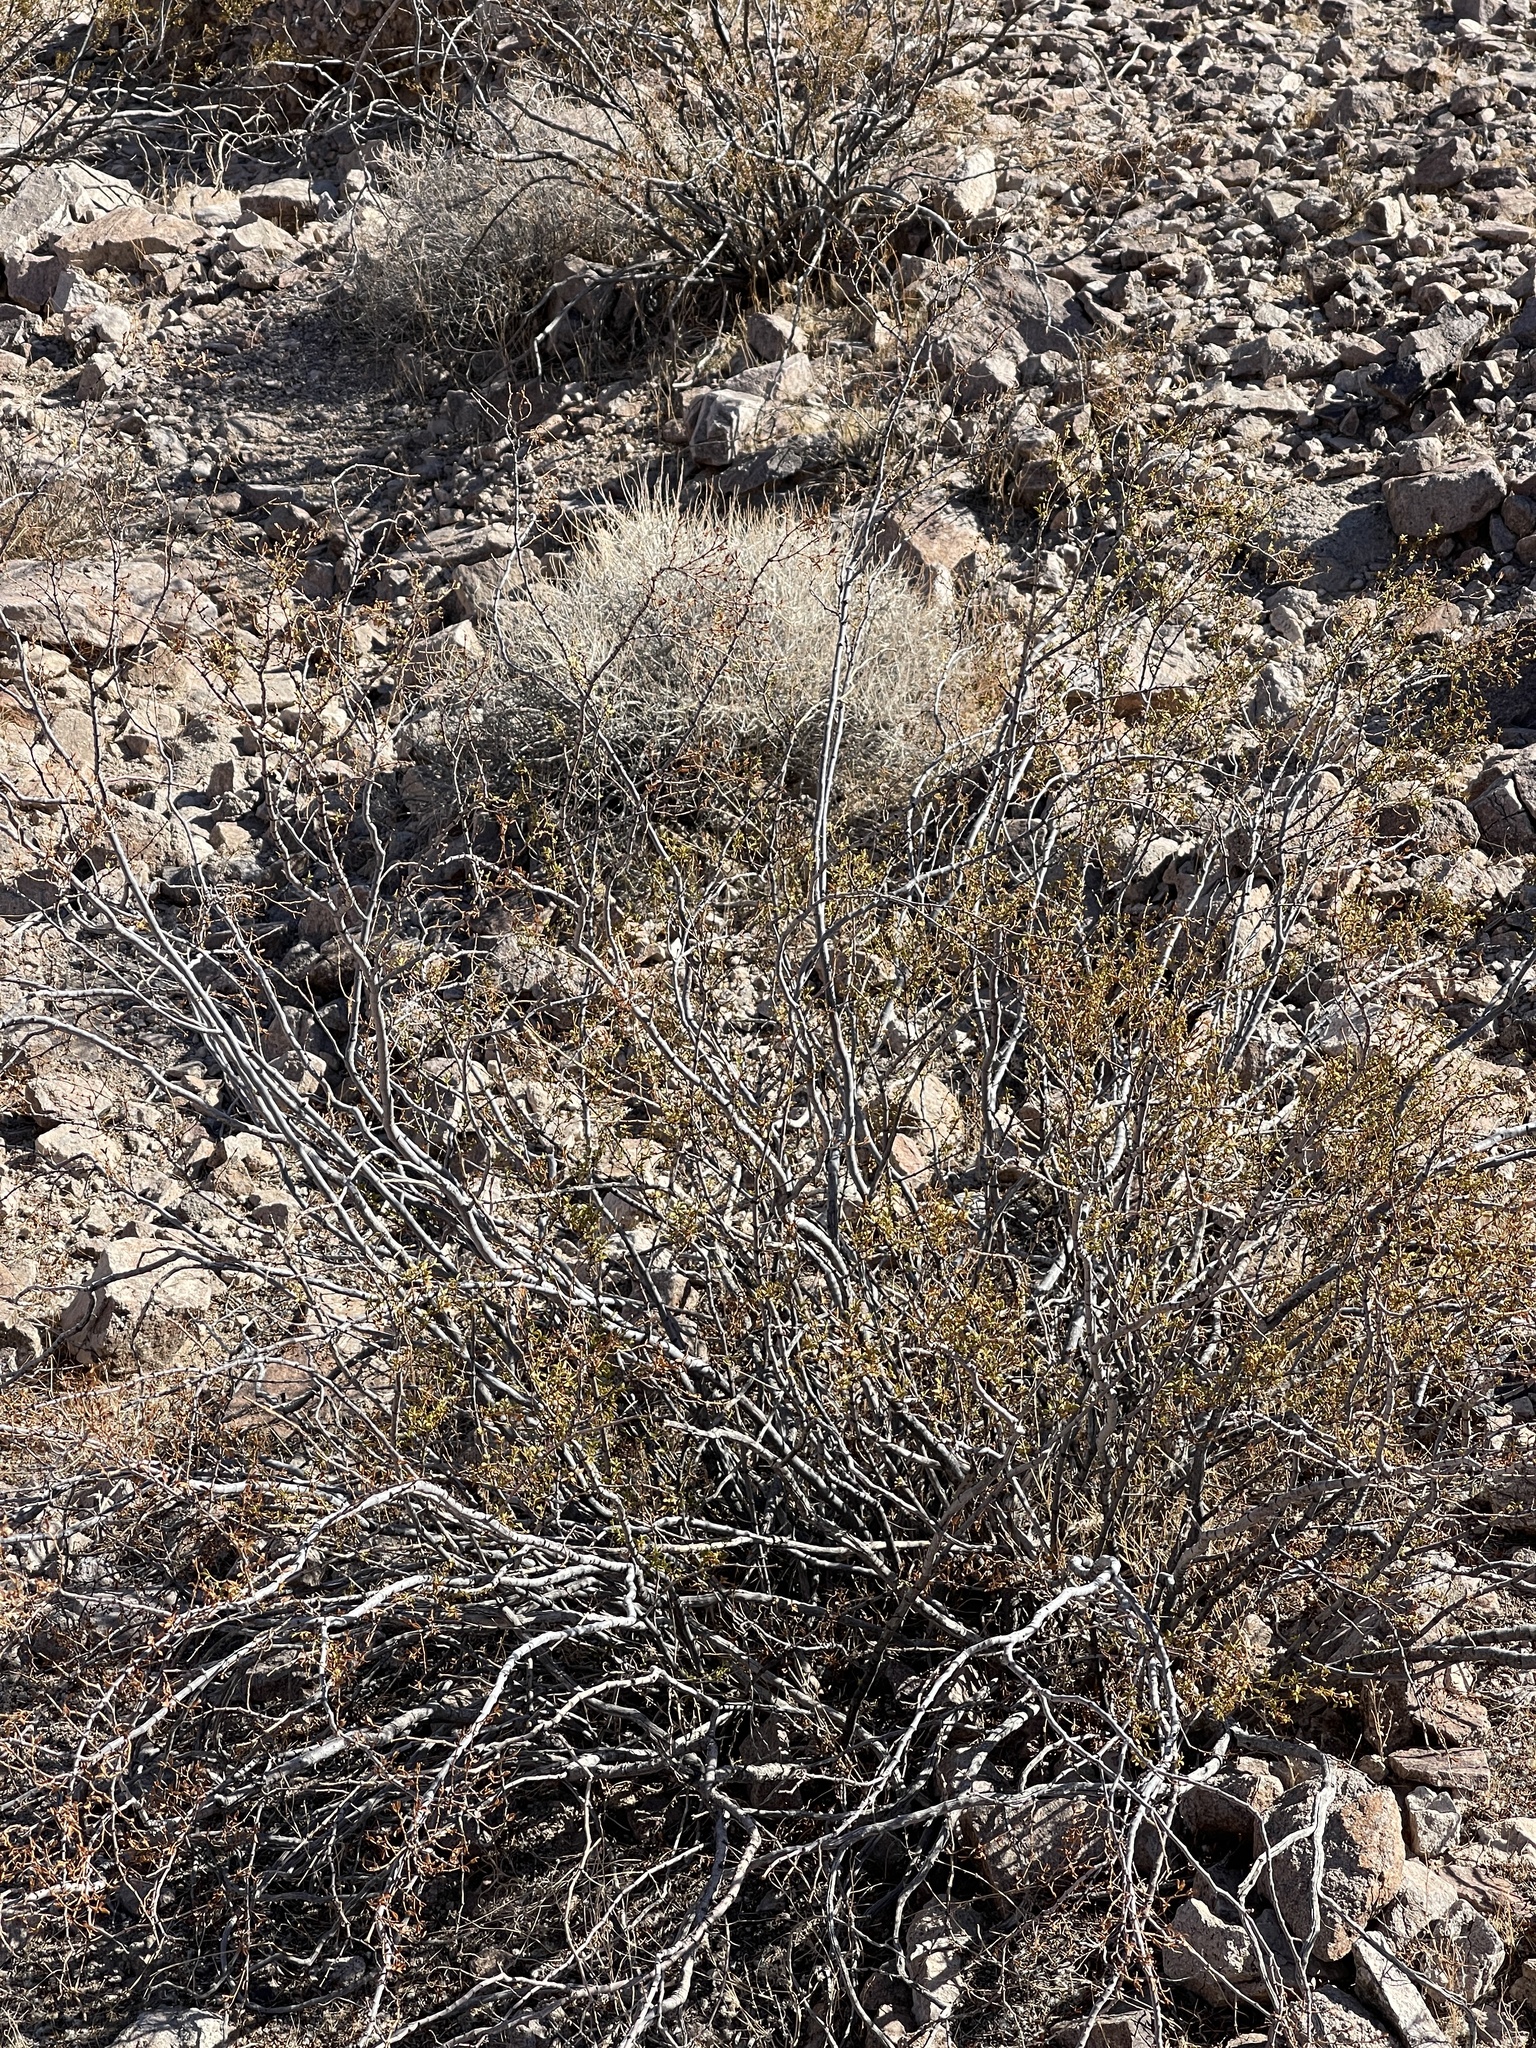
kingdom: Plantae
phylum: Tracheophyta
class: Magnoliopsida
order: Zygophyllales
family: Zygophyllaceae
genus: Larrea
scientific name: Larrea tridentata
